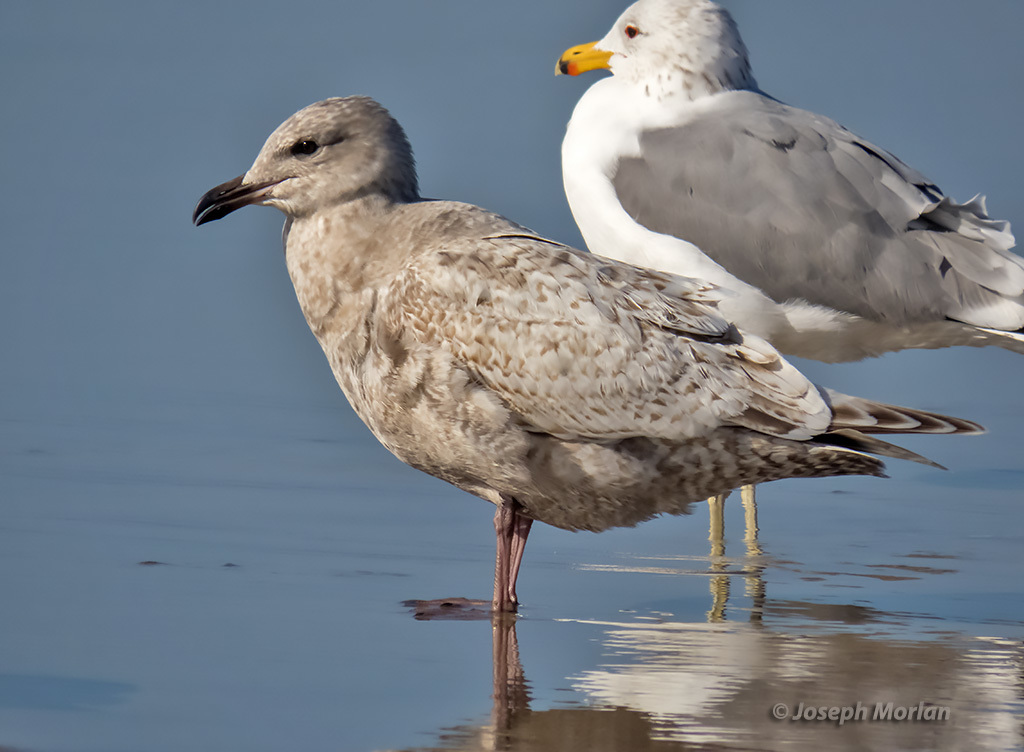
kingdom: Animalia
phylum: Chordata
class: Aves
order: Charadriiformes
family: Laridae
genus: Larus
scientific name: Larus glaucoides
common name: Iceland gull
